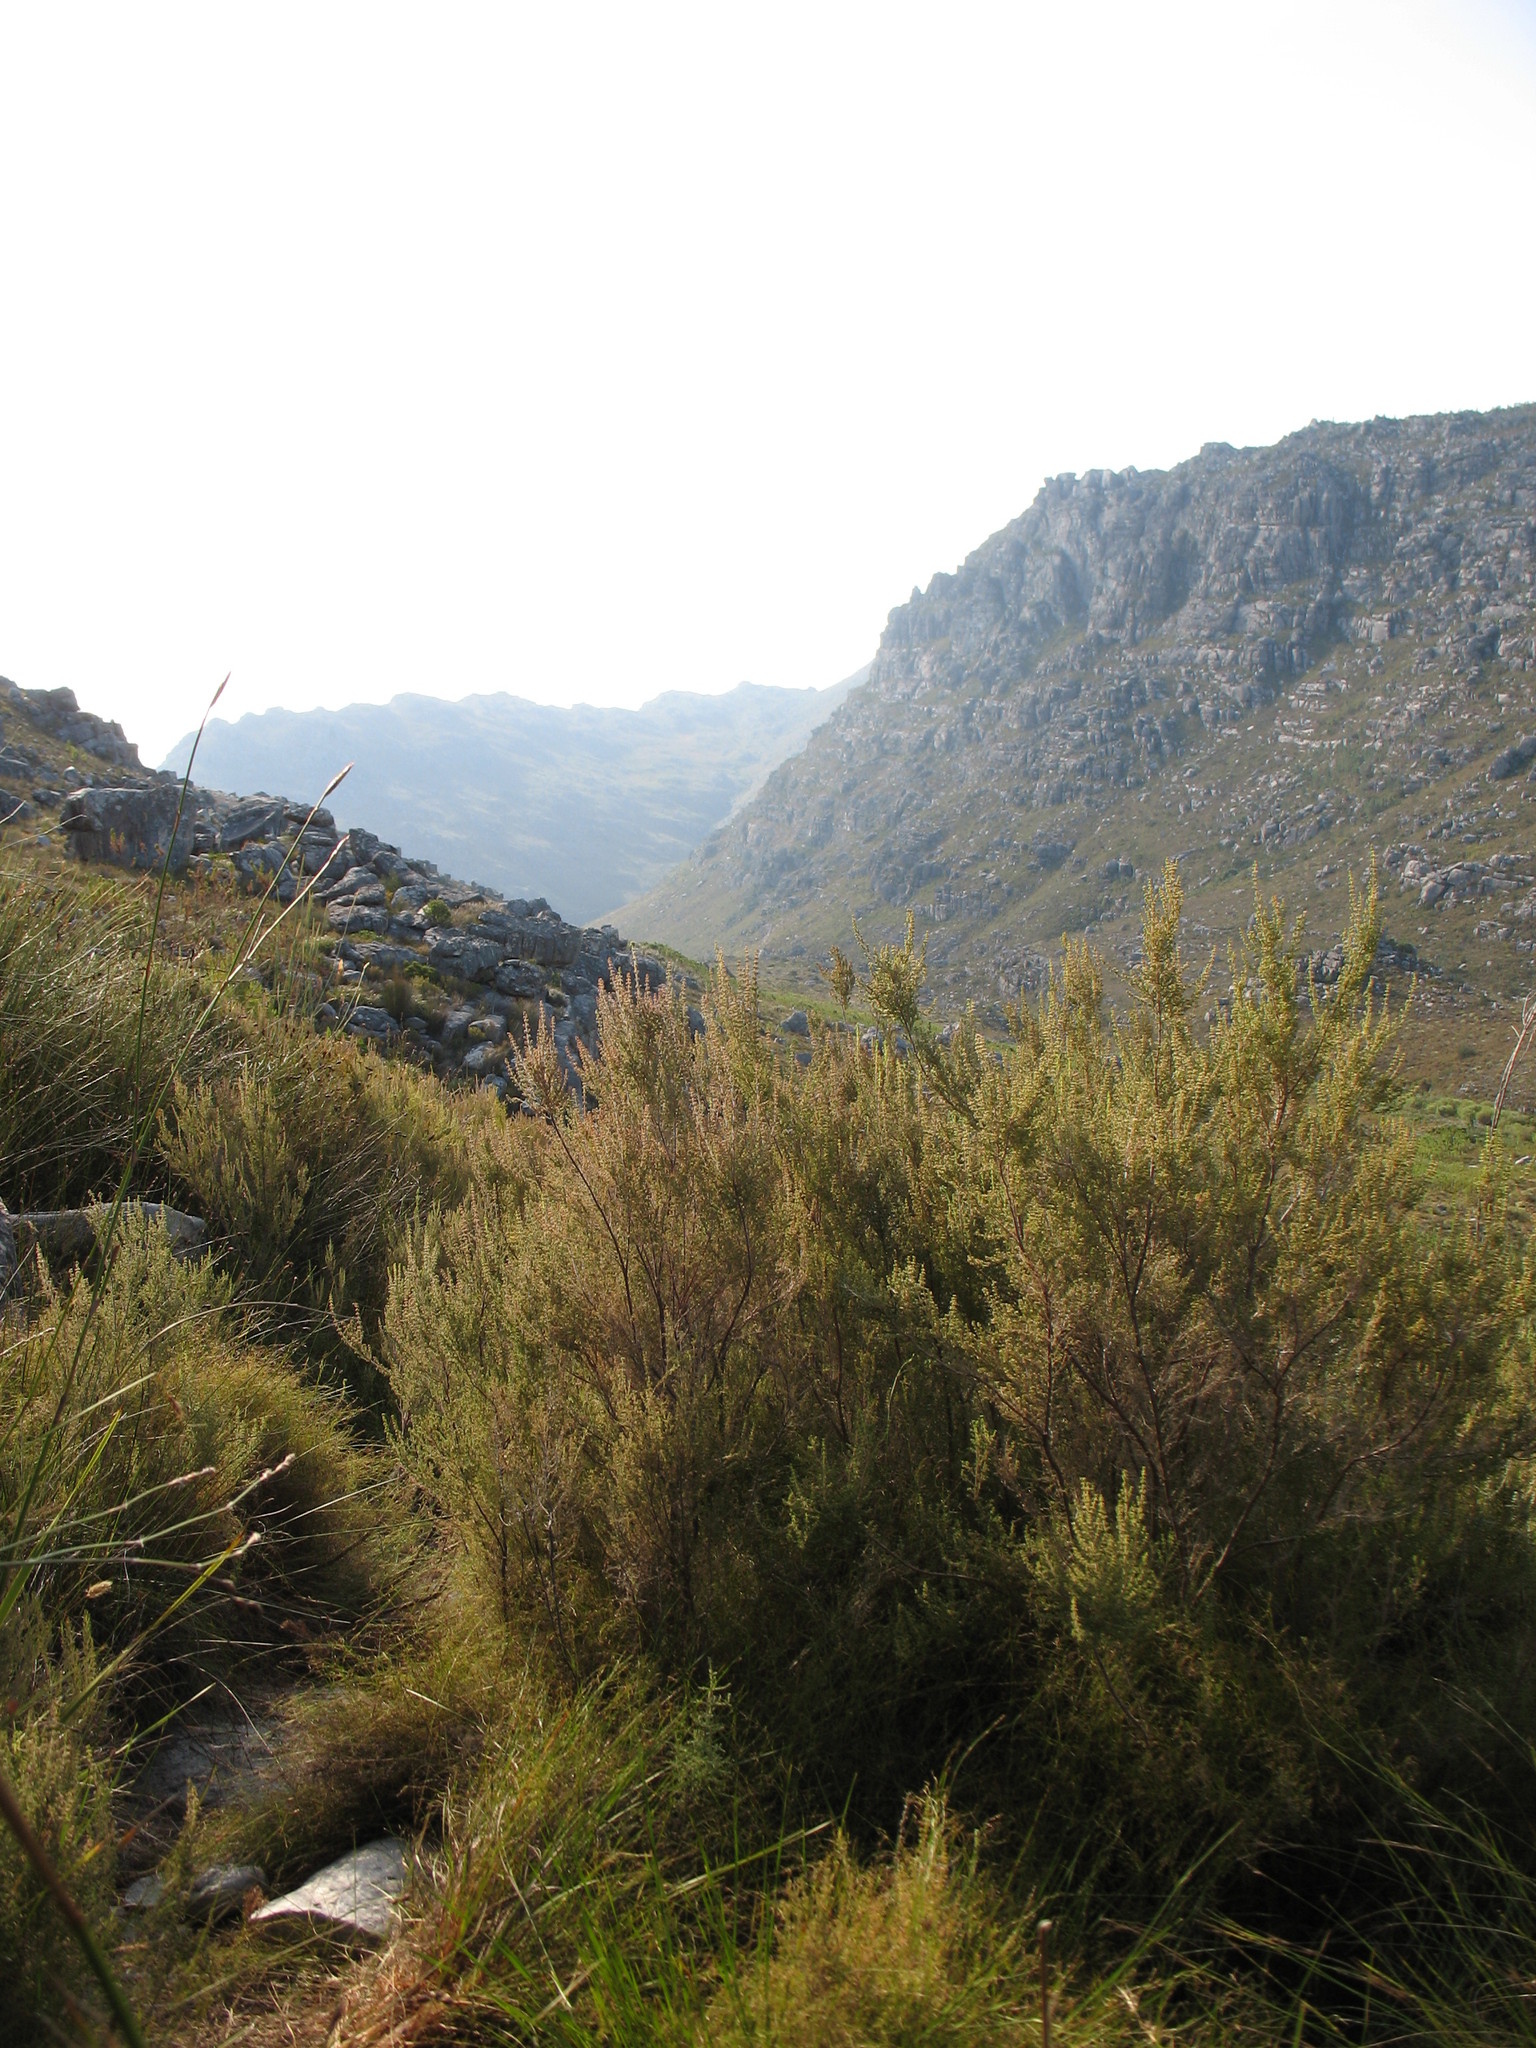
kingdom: Plantae
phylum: Tracheophyta
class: Magnoliopsida
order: Ericales
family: Ericaceae
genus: Erica
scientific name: Erica hispidula
